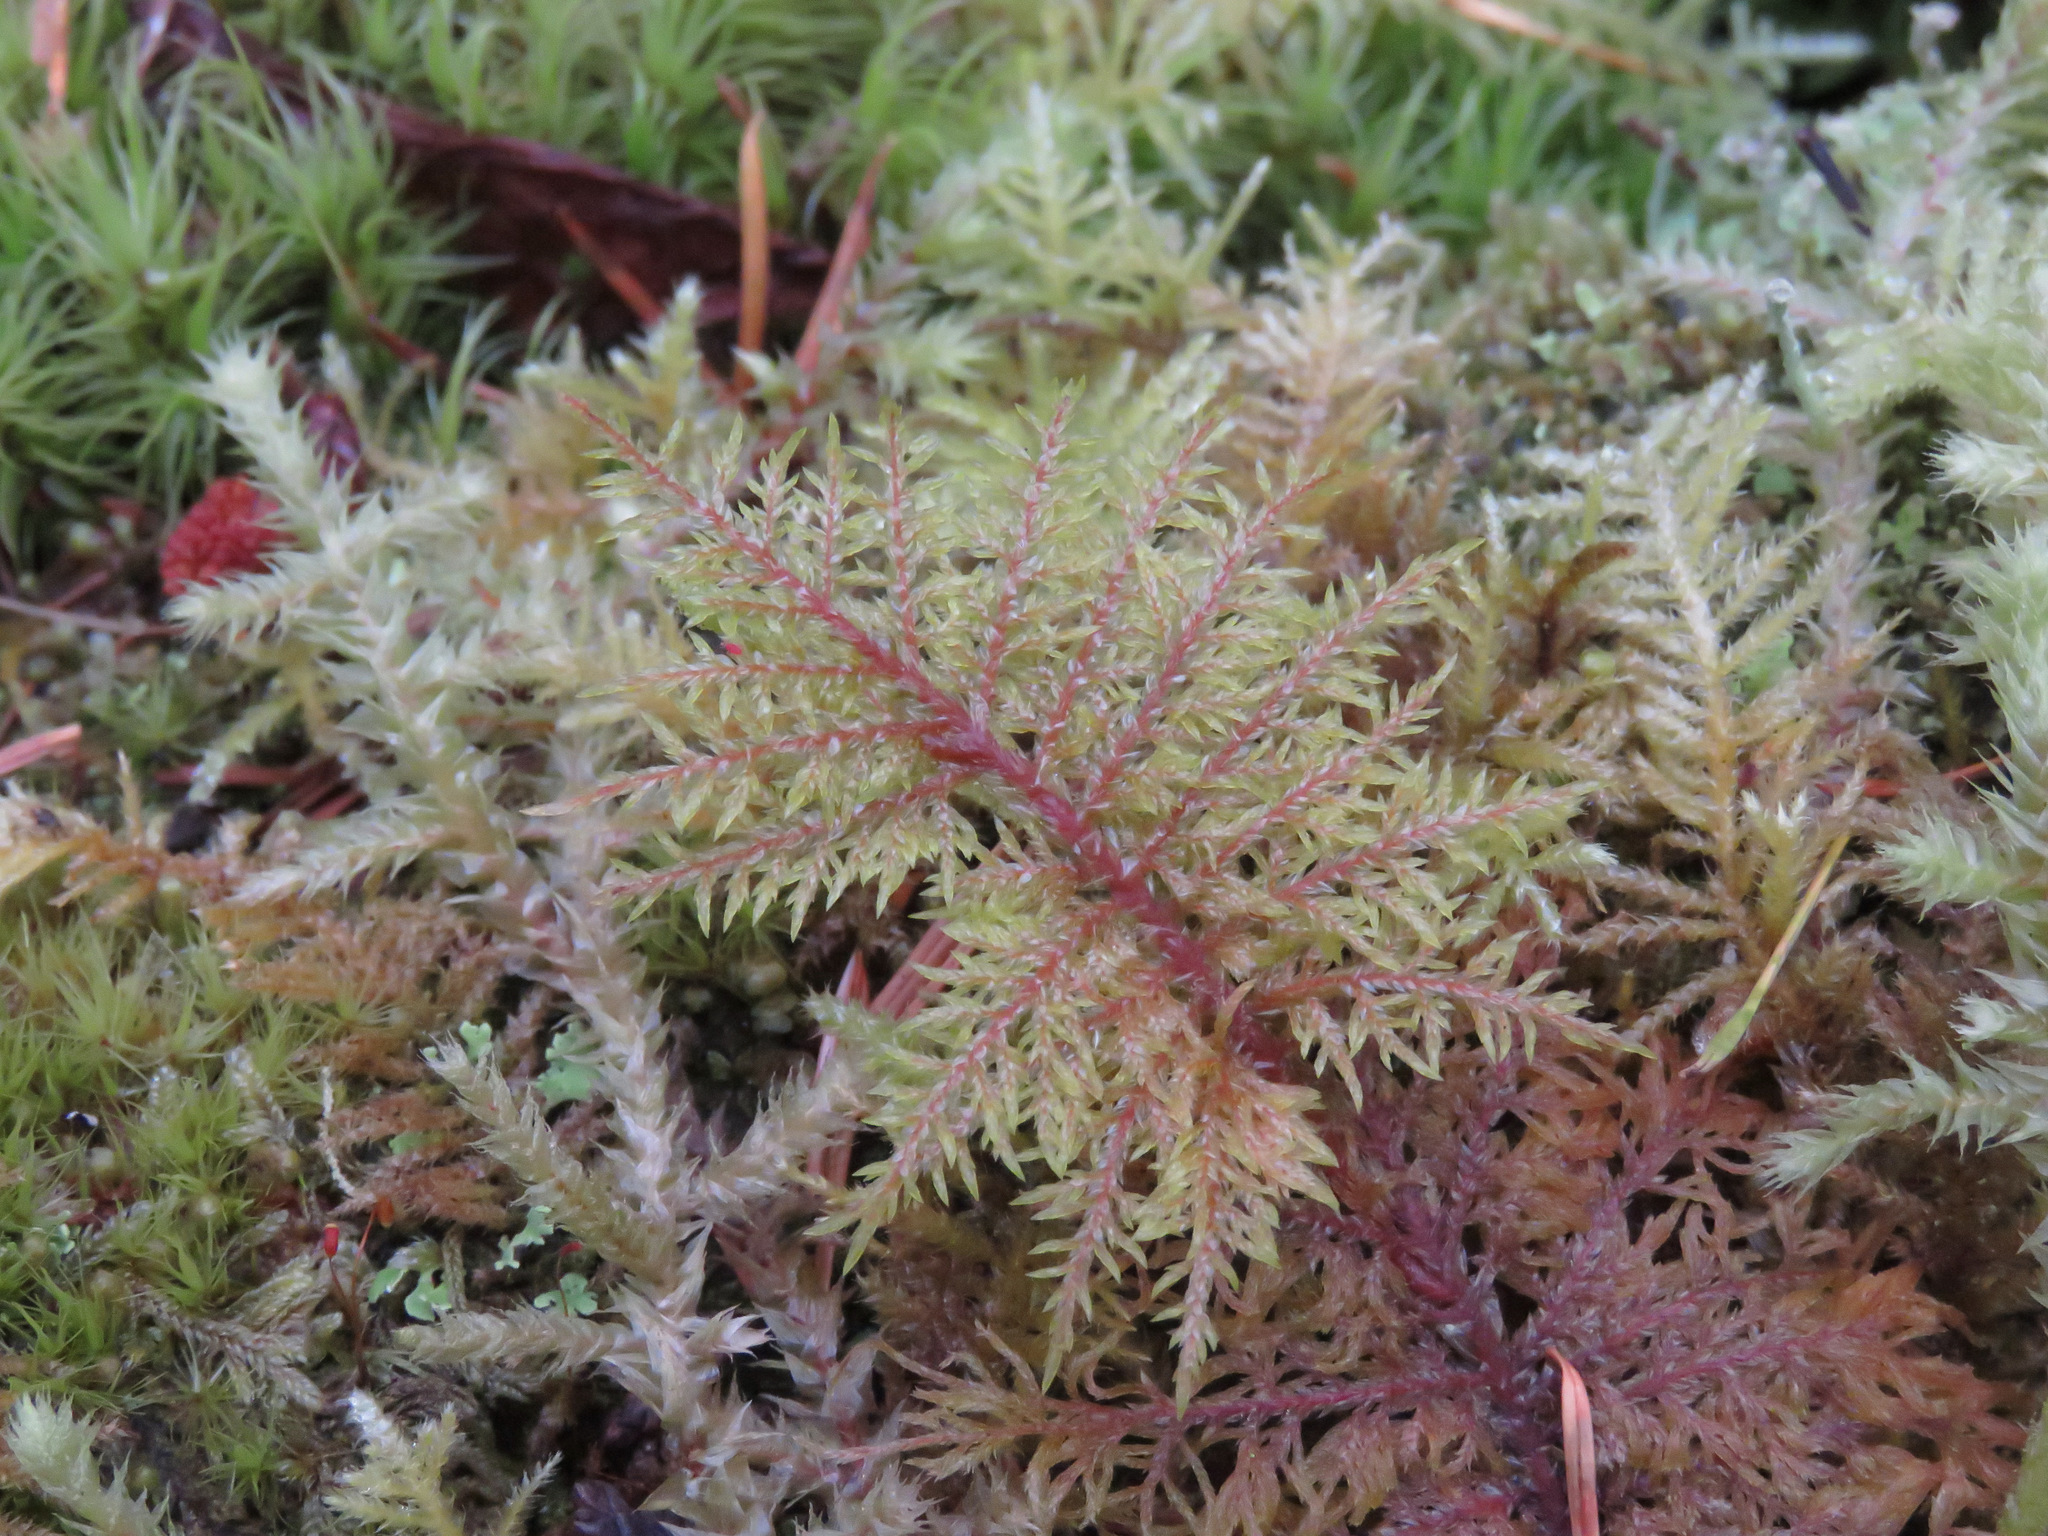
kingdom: Plantae
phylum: Bryophyta
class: Bryopsida
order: Hypnales
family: Hylocomiaceae
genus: Hylocomium
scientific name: Hylocomium splendens
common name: Stairstep moss
